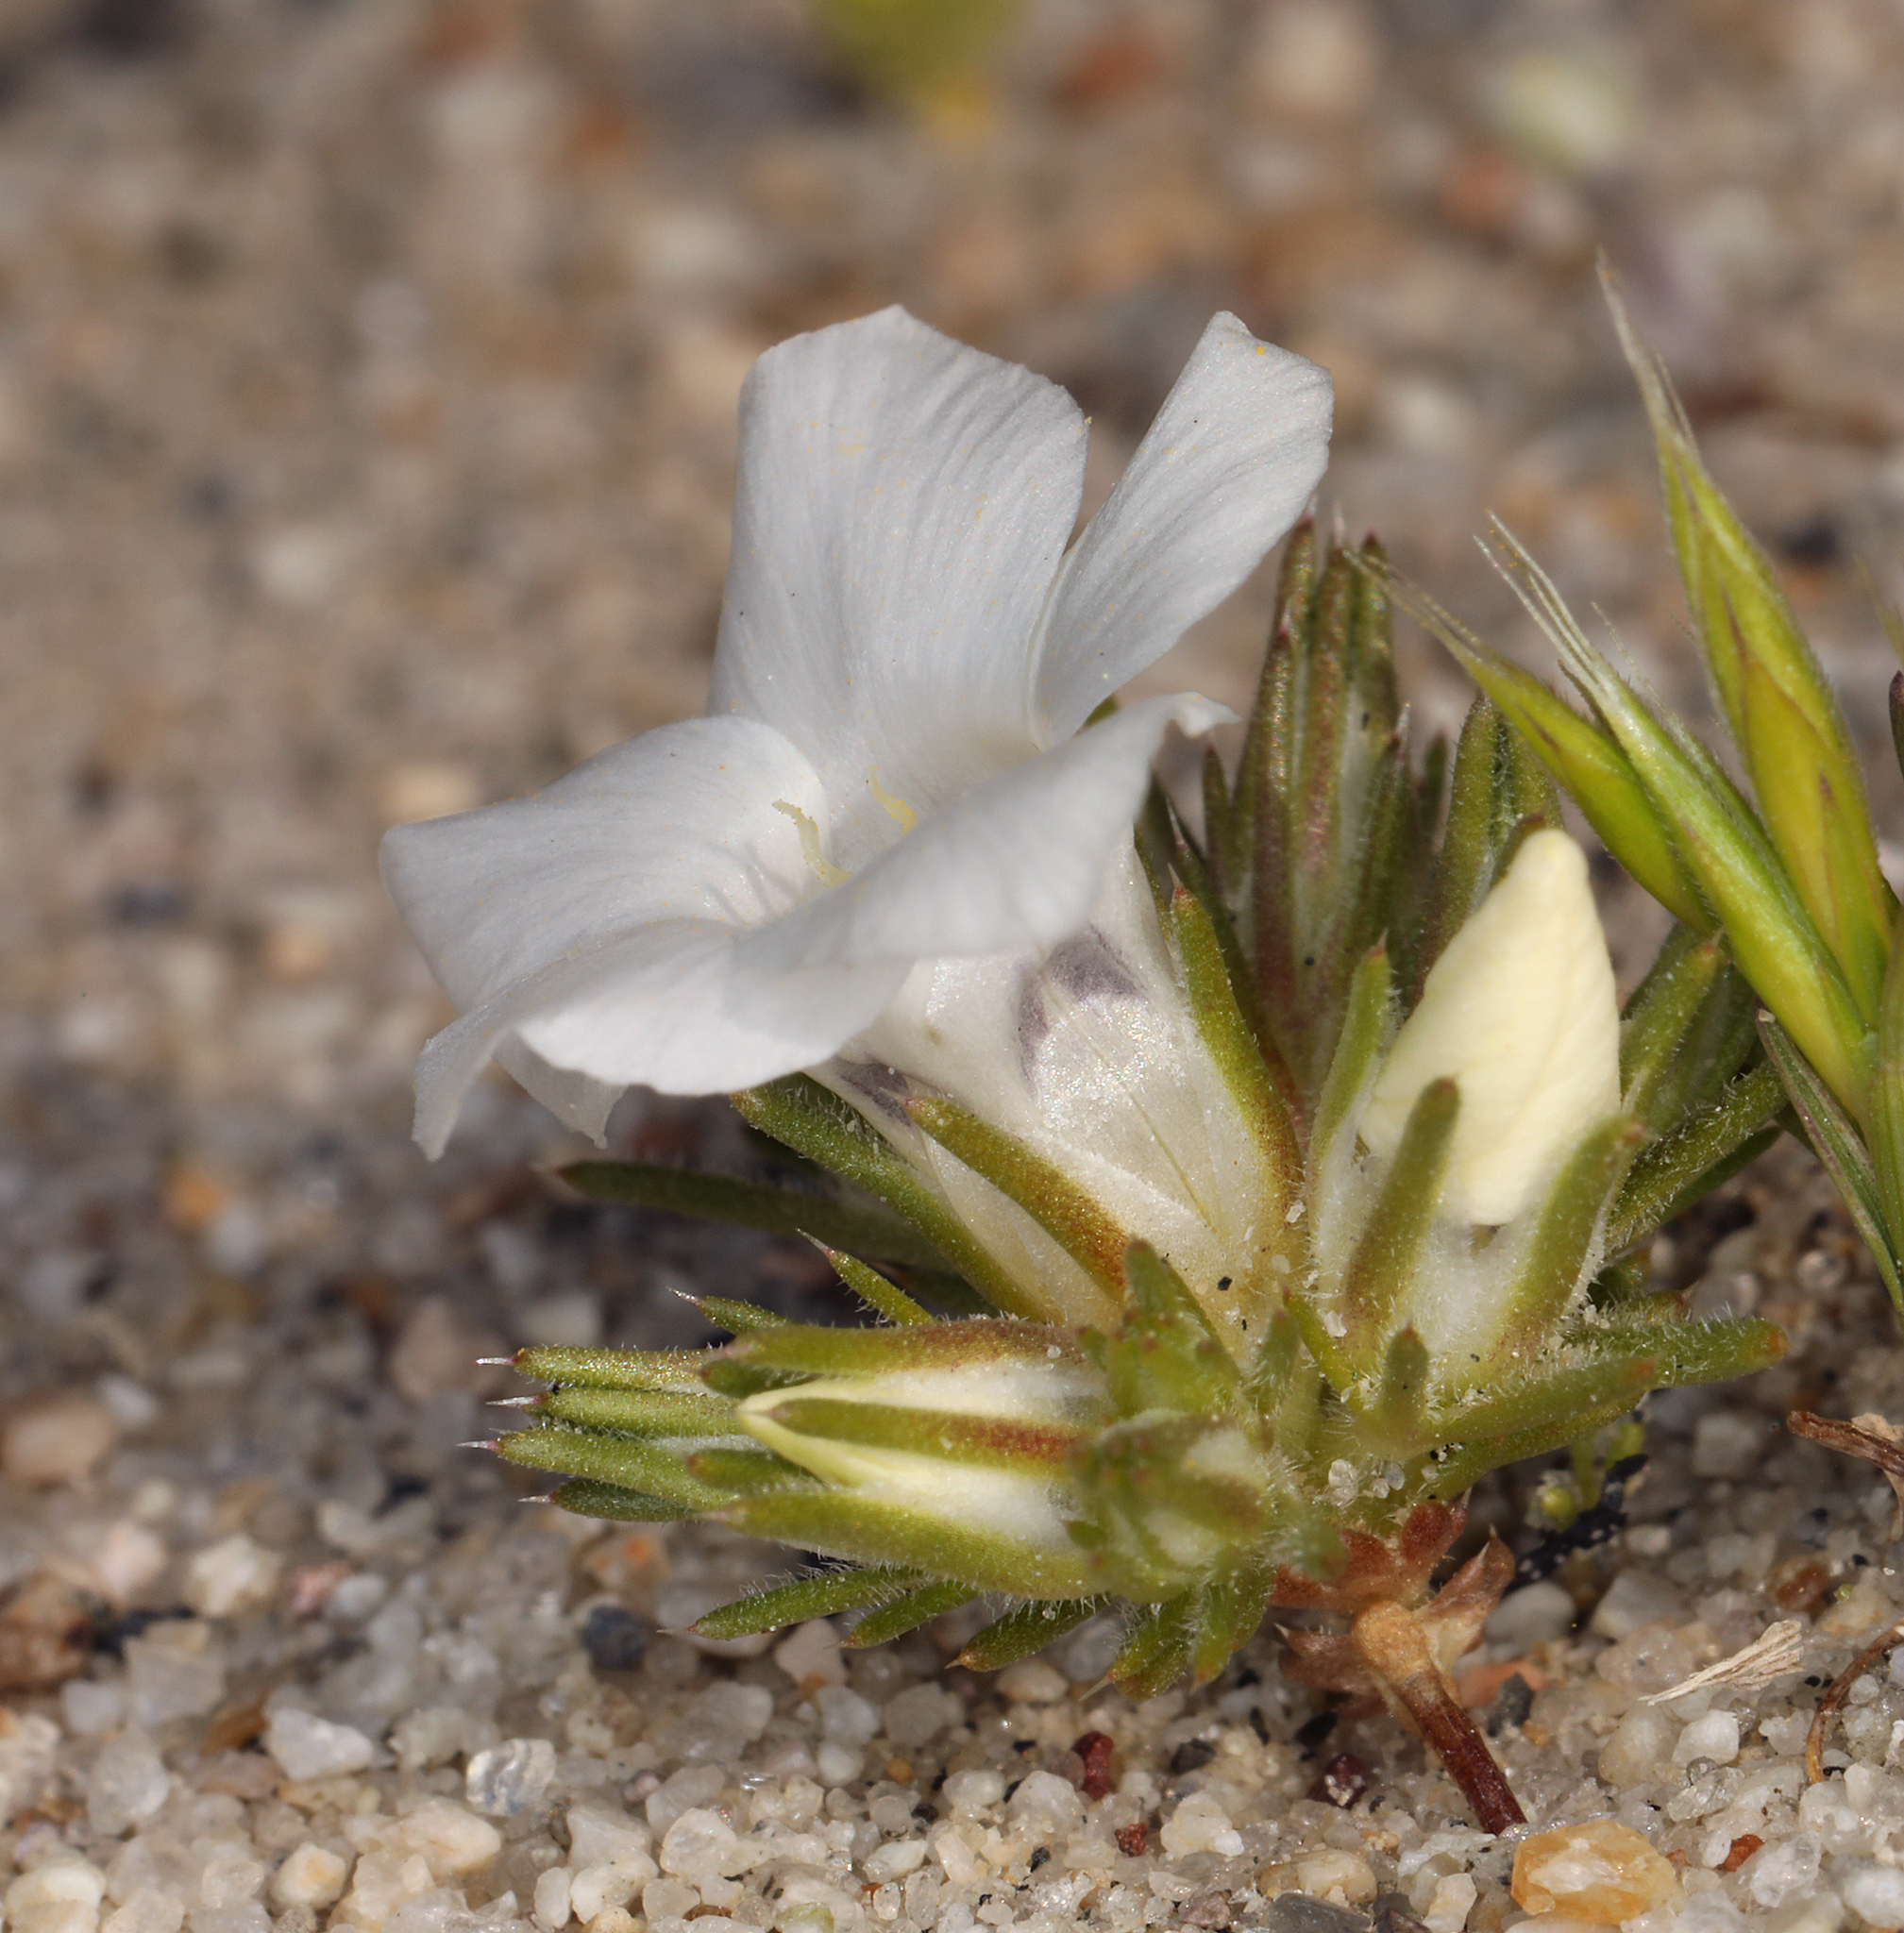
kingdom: Plantae
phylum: Tracheophyta
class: Magnoliopsida
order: Ericales
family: Polemoniaceae
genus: Linanthus
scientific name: Linanthus parryae
